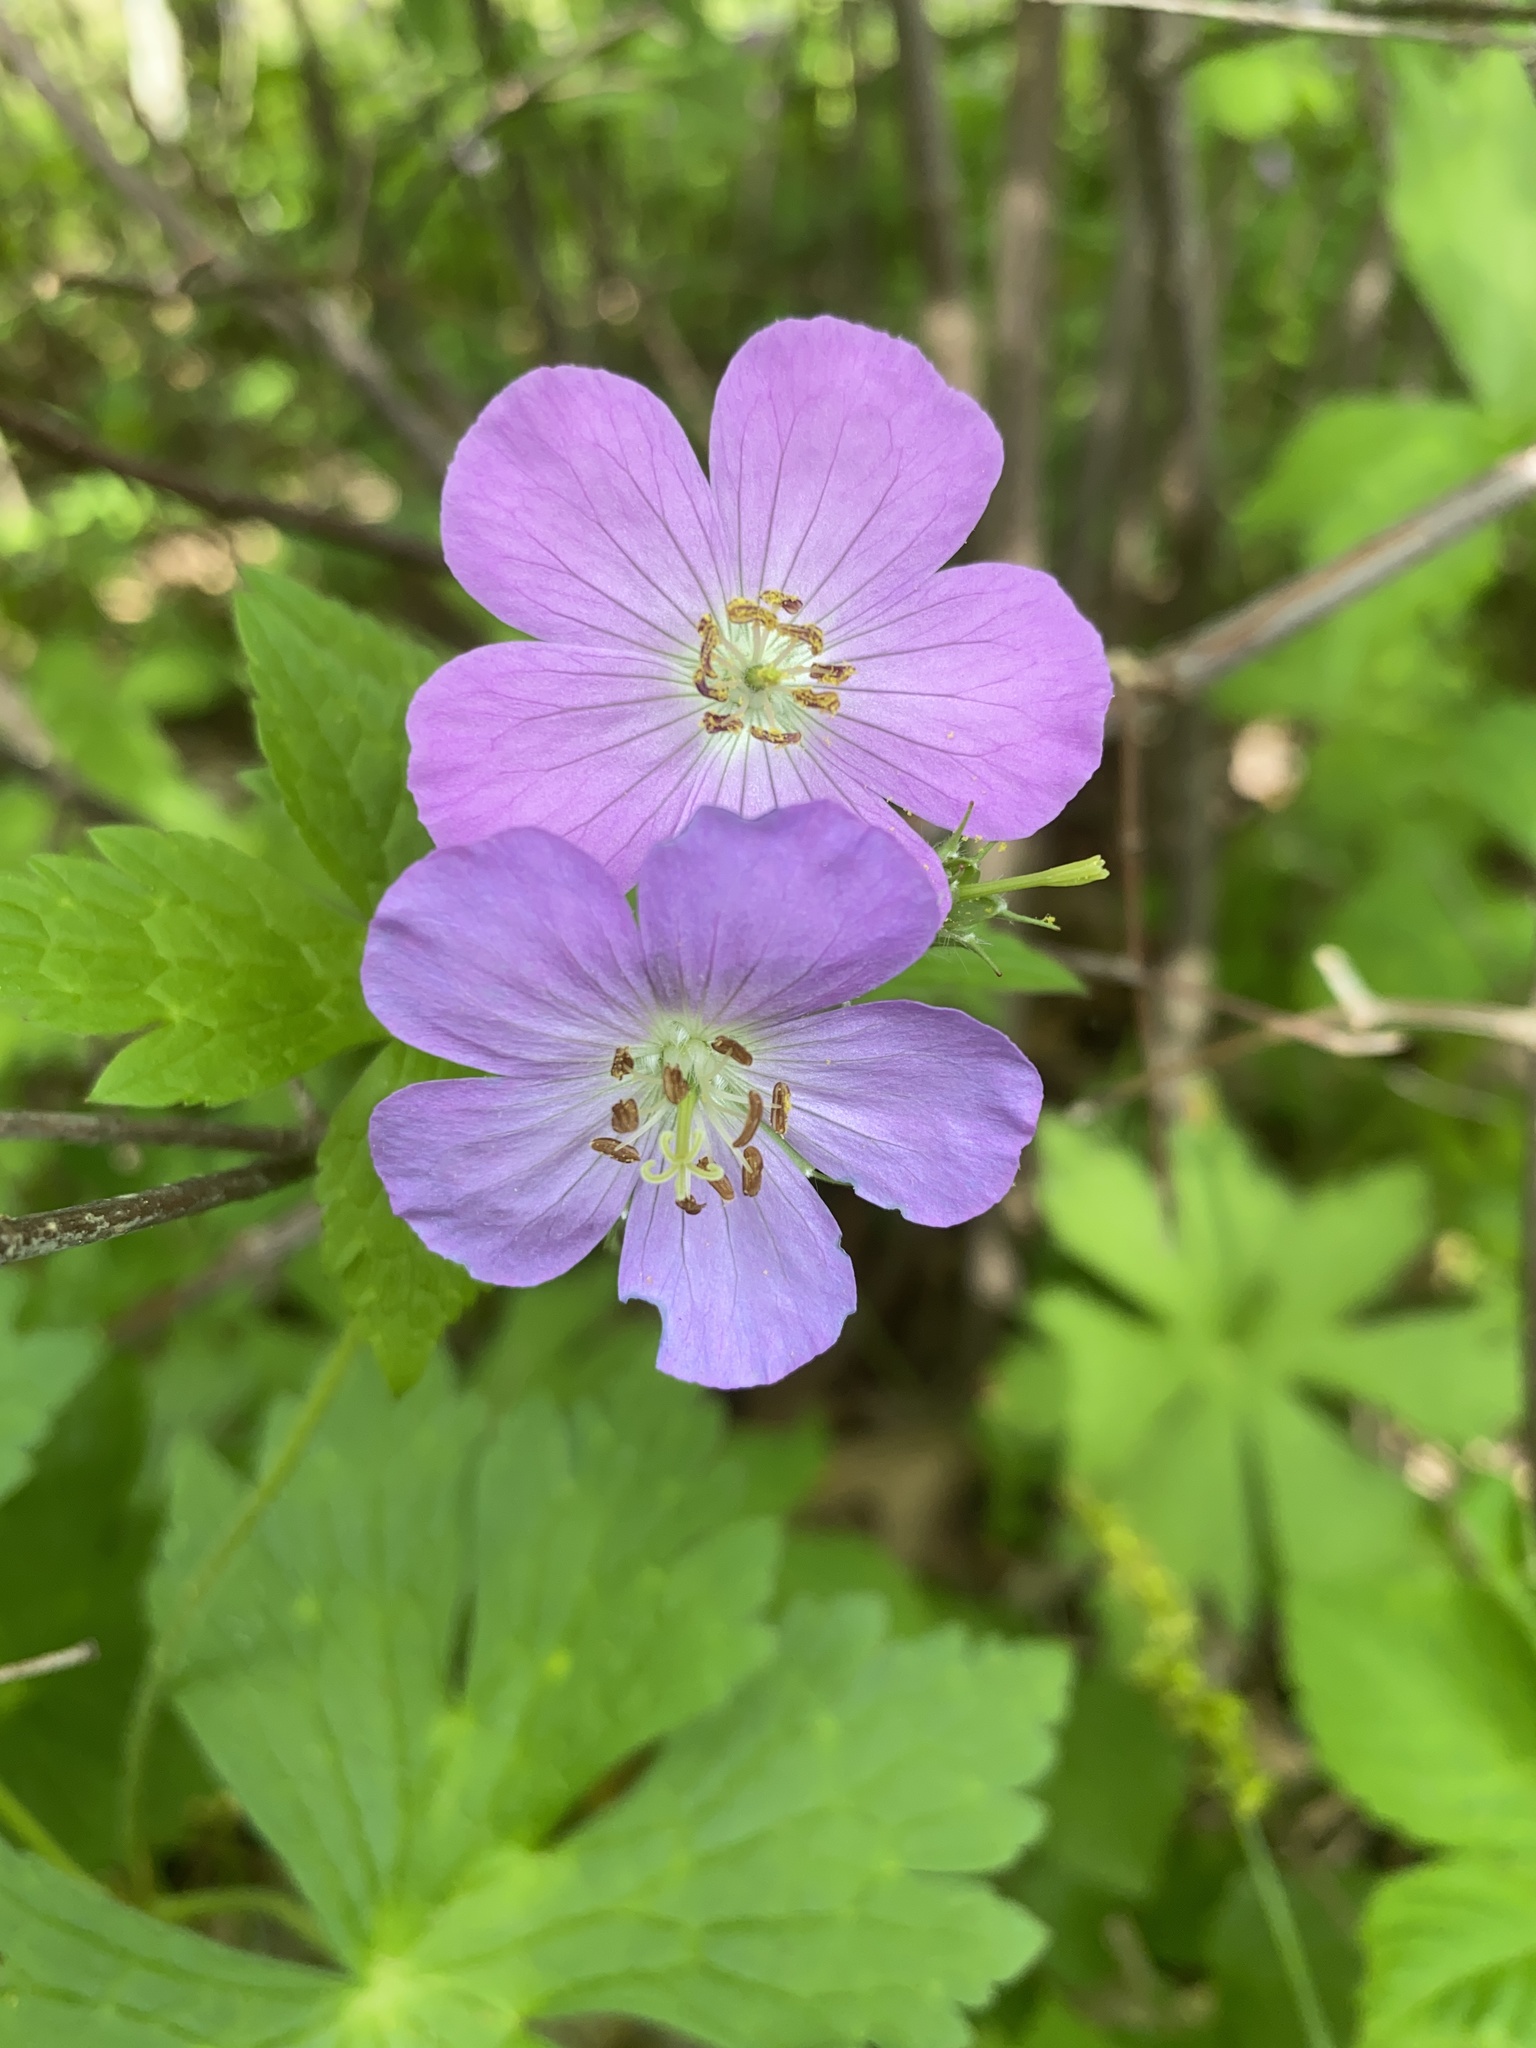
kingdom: Plantae
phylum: Tracheophyta
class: Magnoliopsida
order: Geraniales
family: Geraniaceae
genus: Geranium
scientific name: Geranium maculatum
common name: Spotted geranium
